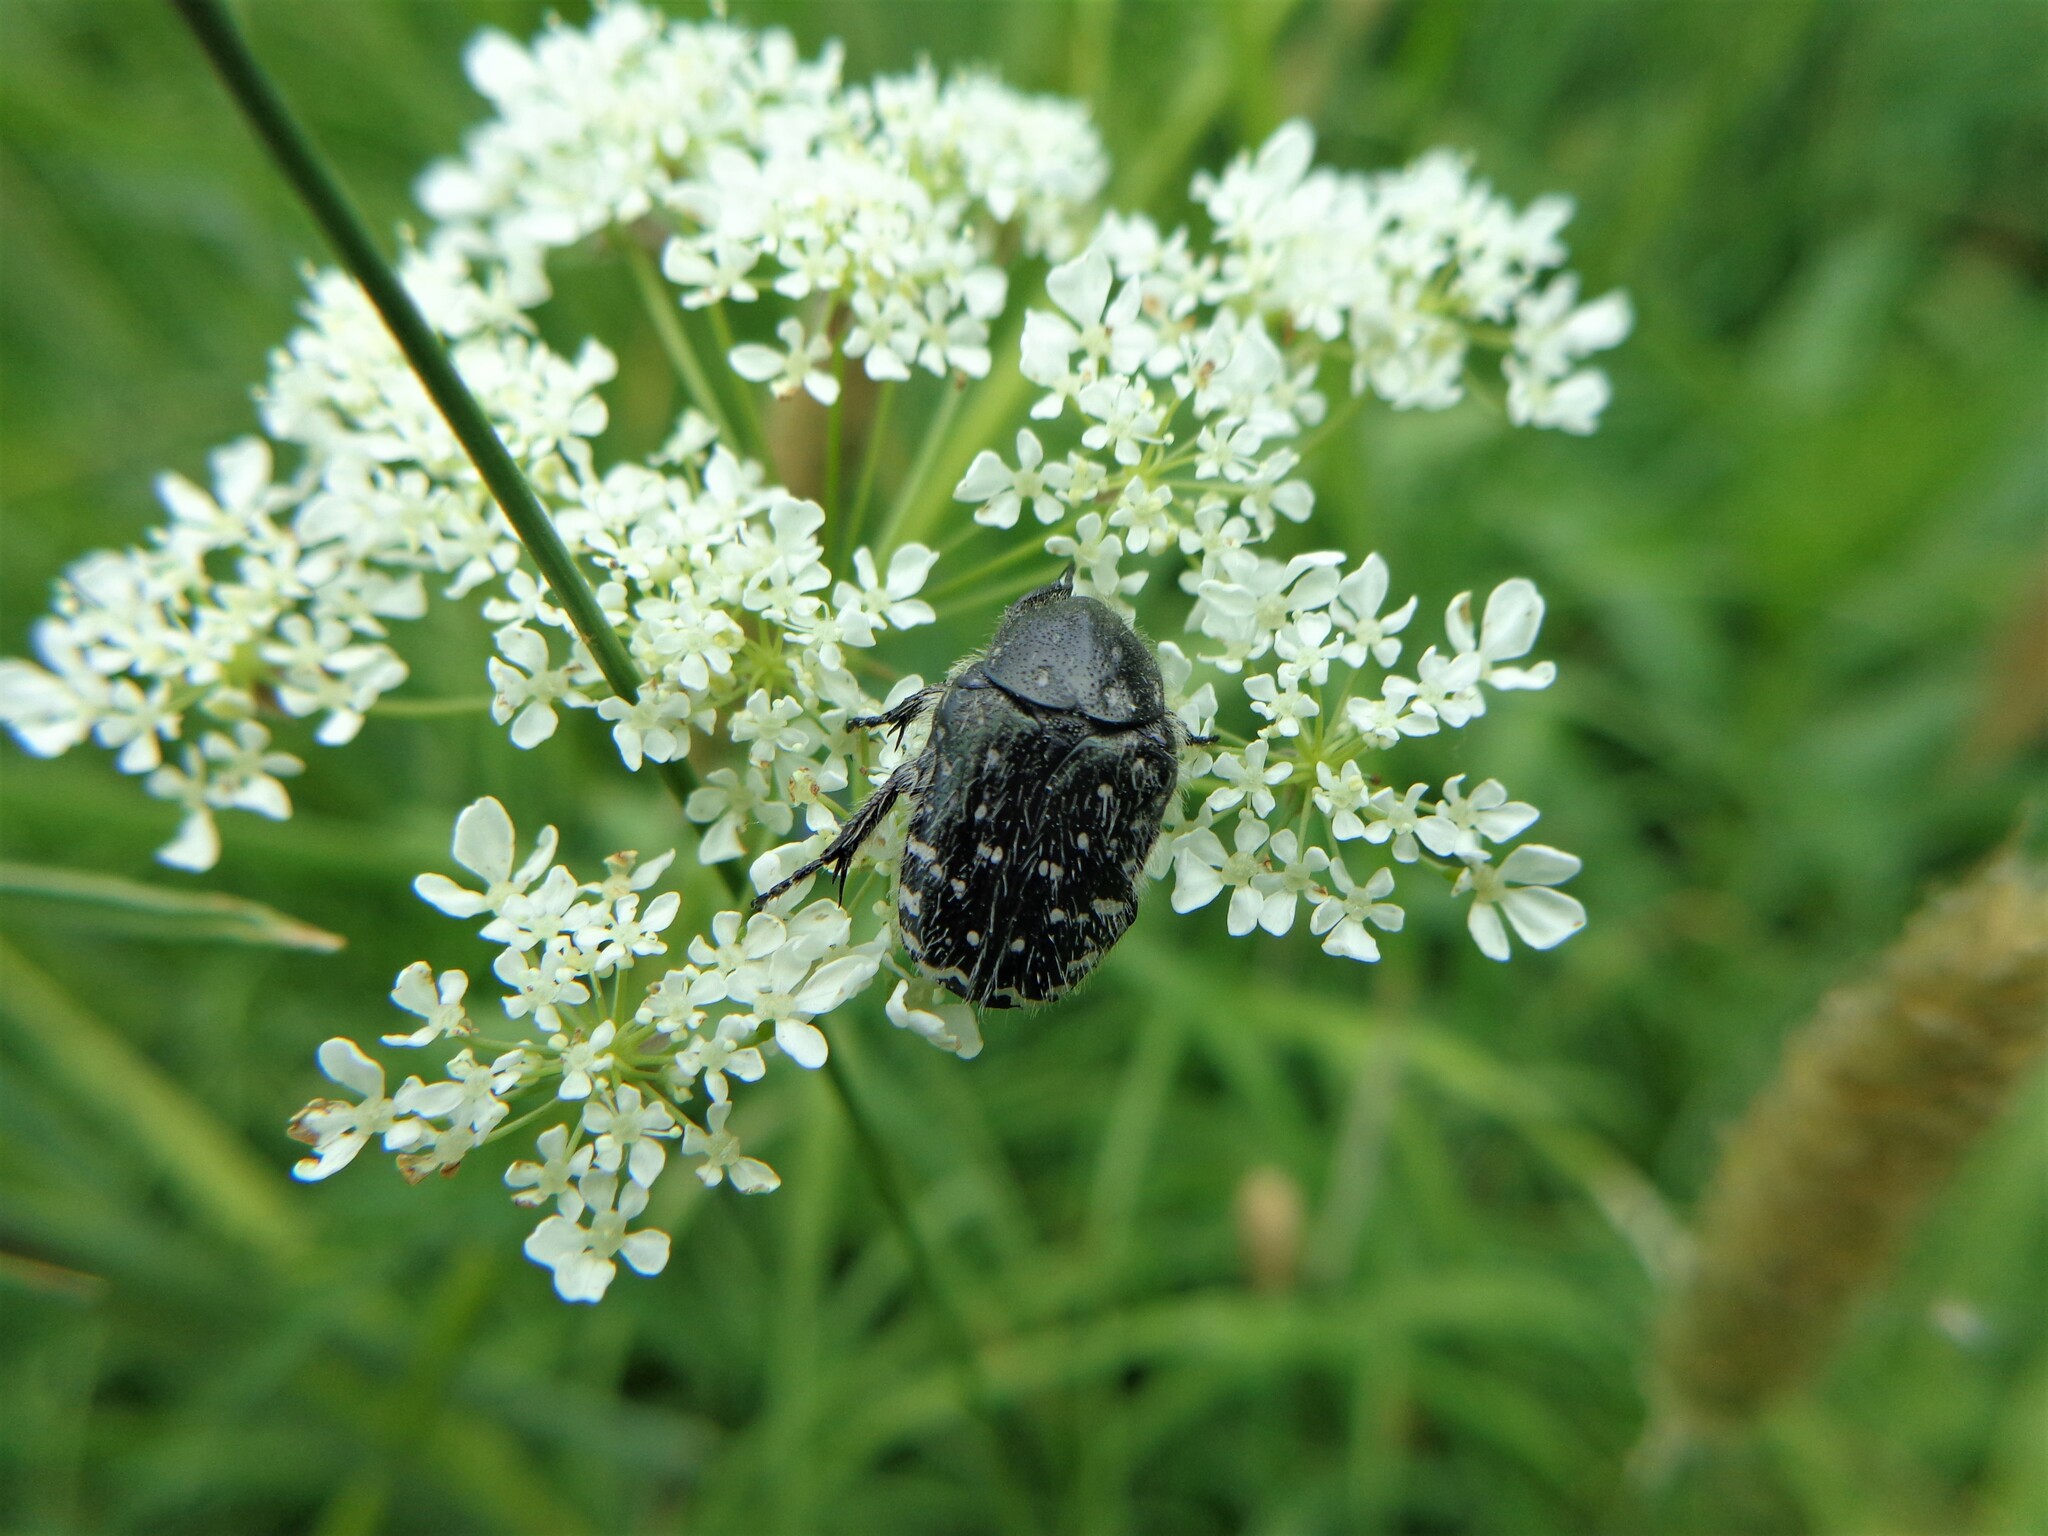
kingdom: Animalia
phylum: Arthropoda
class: Insecta
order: Coleoptera
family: Scarabaeidae
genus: Oxythyrea
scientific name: Oxythyrea funesta
